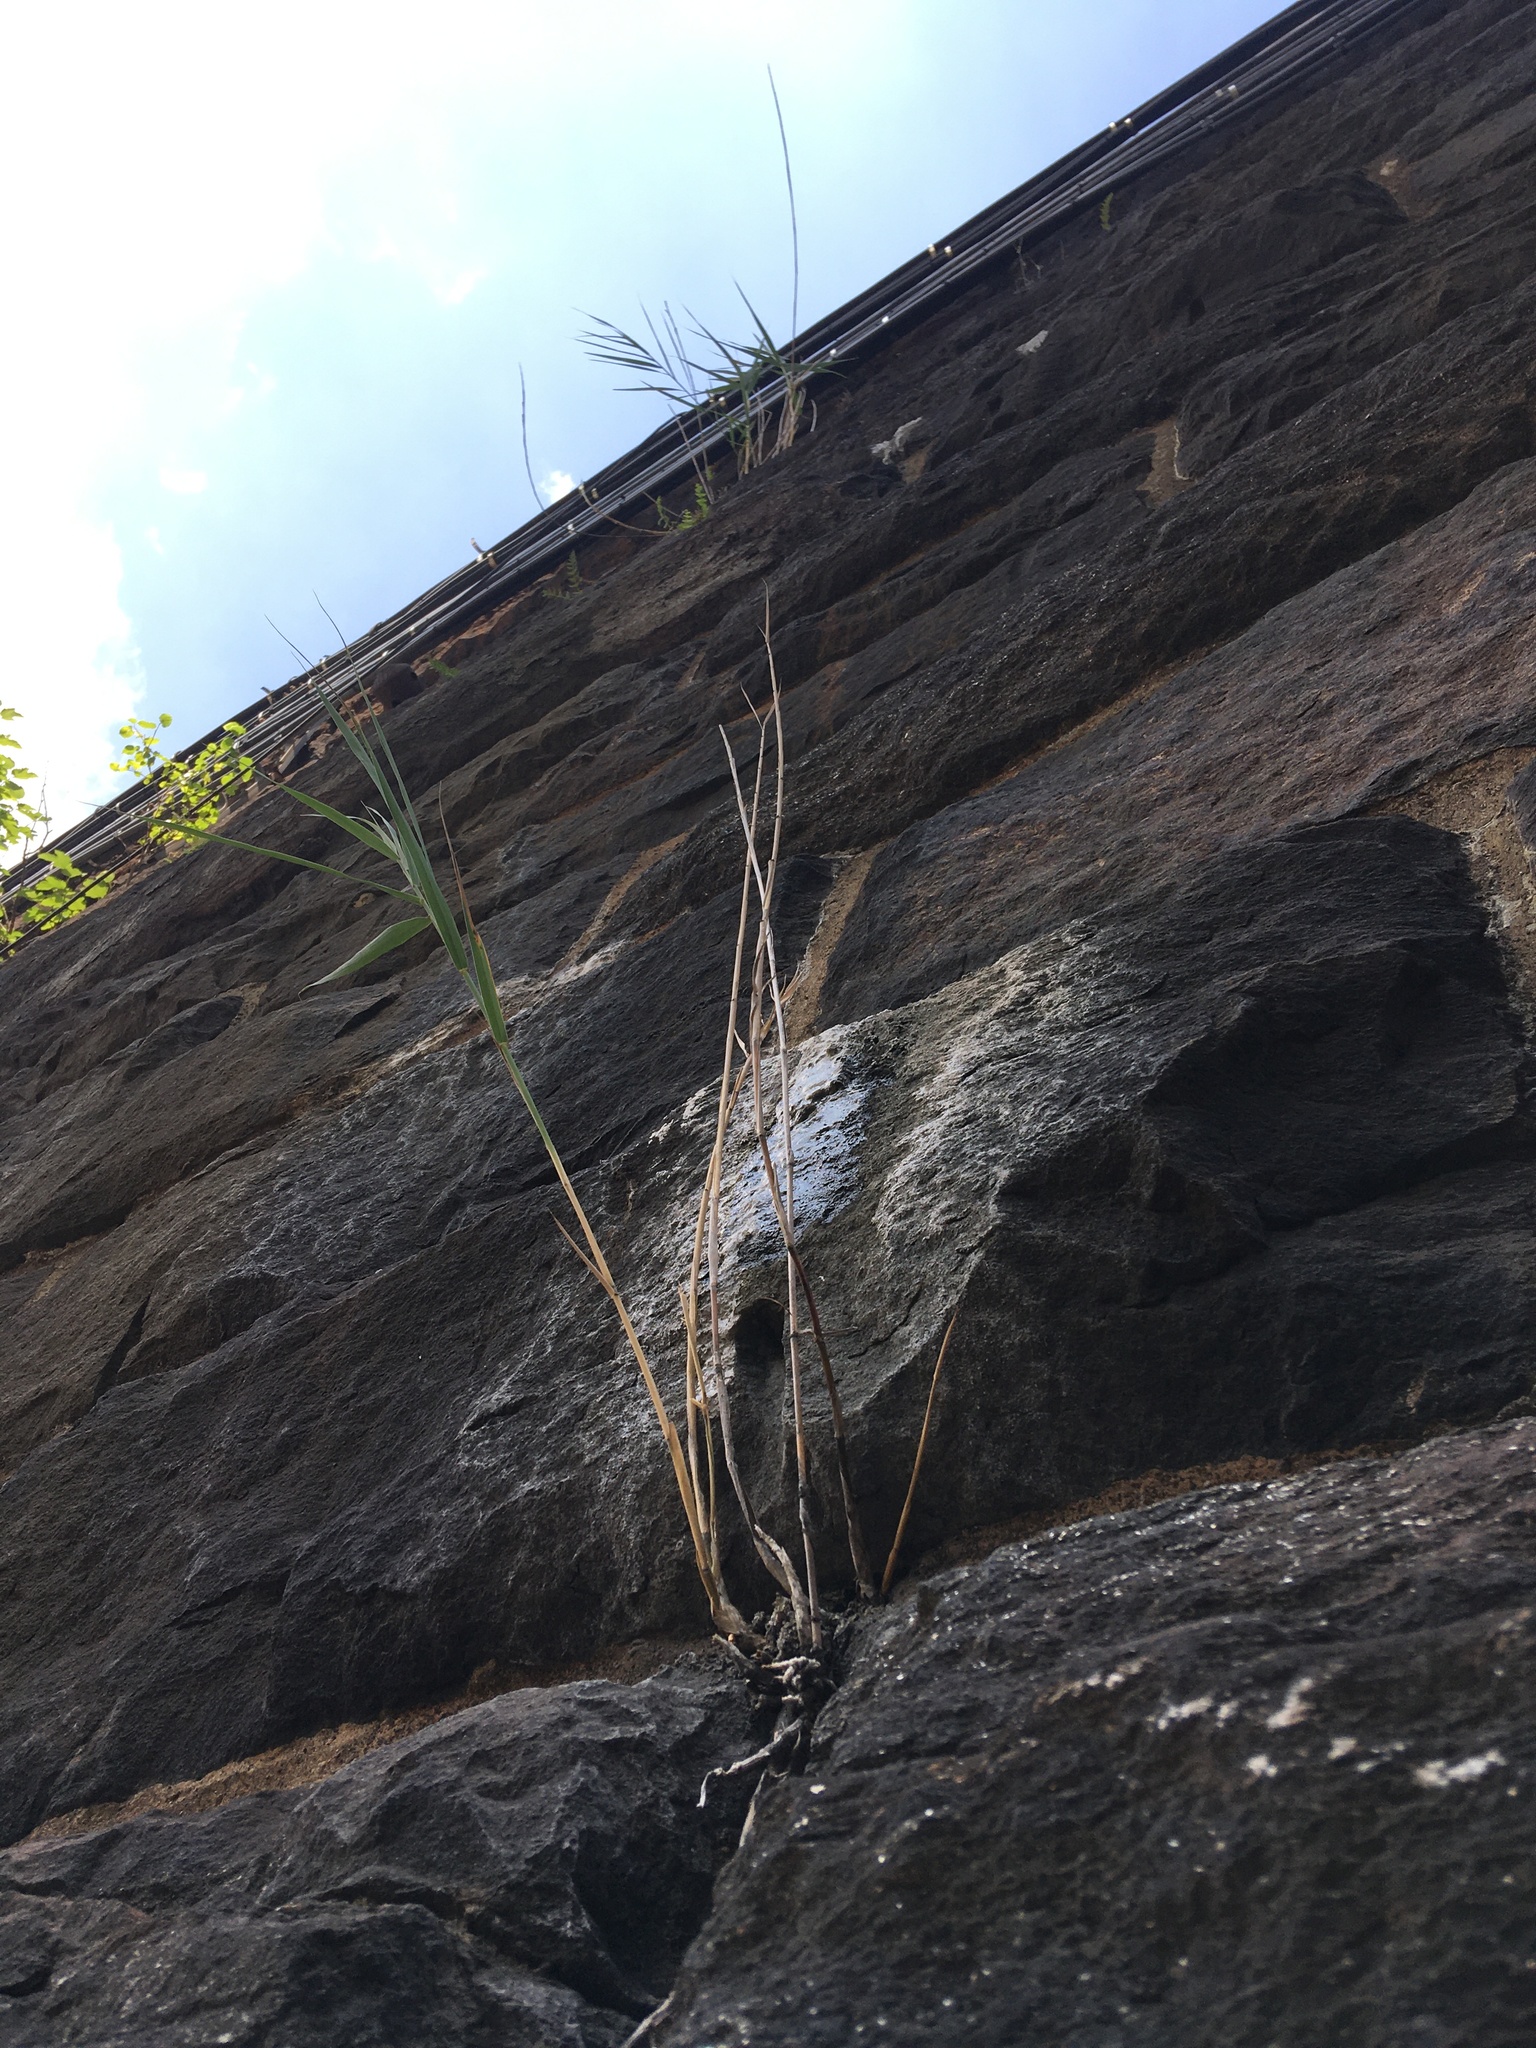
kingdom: Plantae
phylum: Tracheophyta
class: Liliopsida
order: Poales
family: Poaceae
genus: Phragmites
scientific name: Phragmites australis
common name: Common reed
